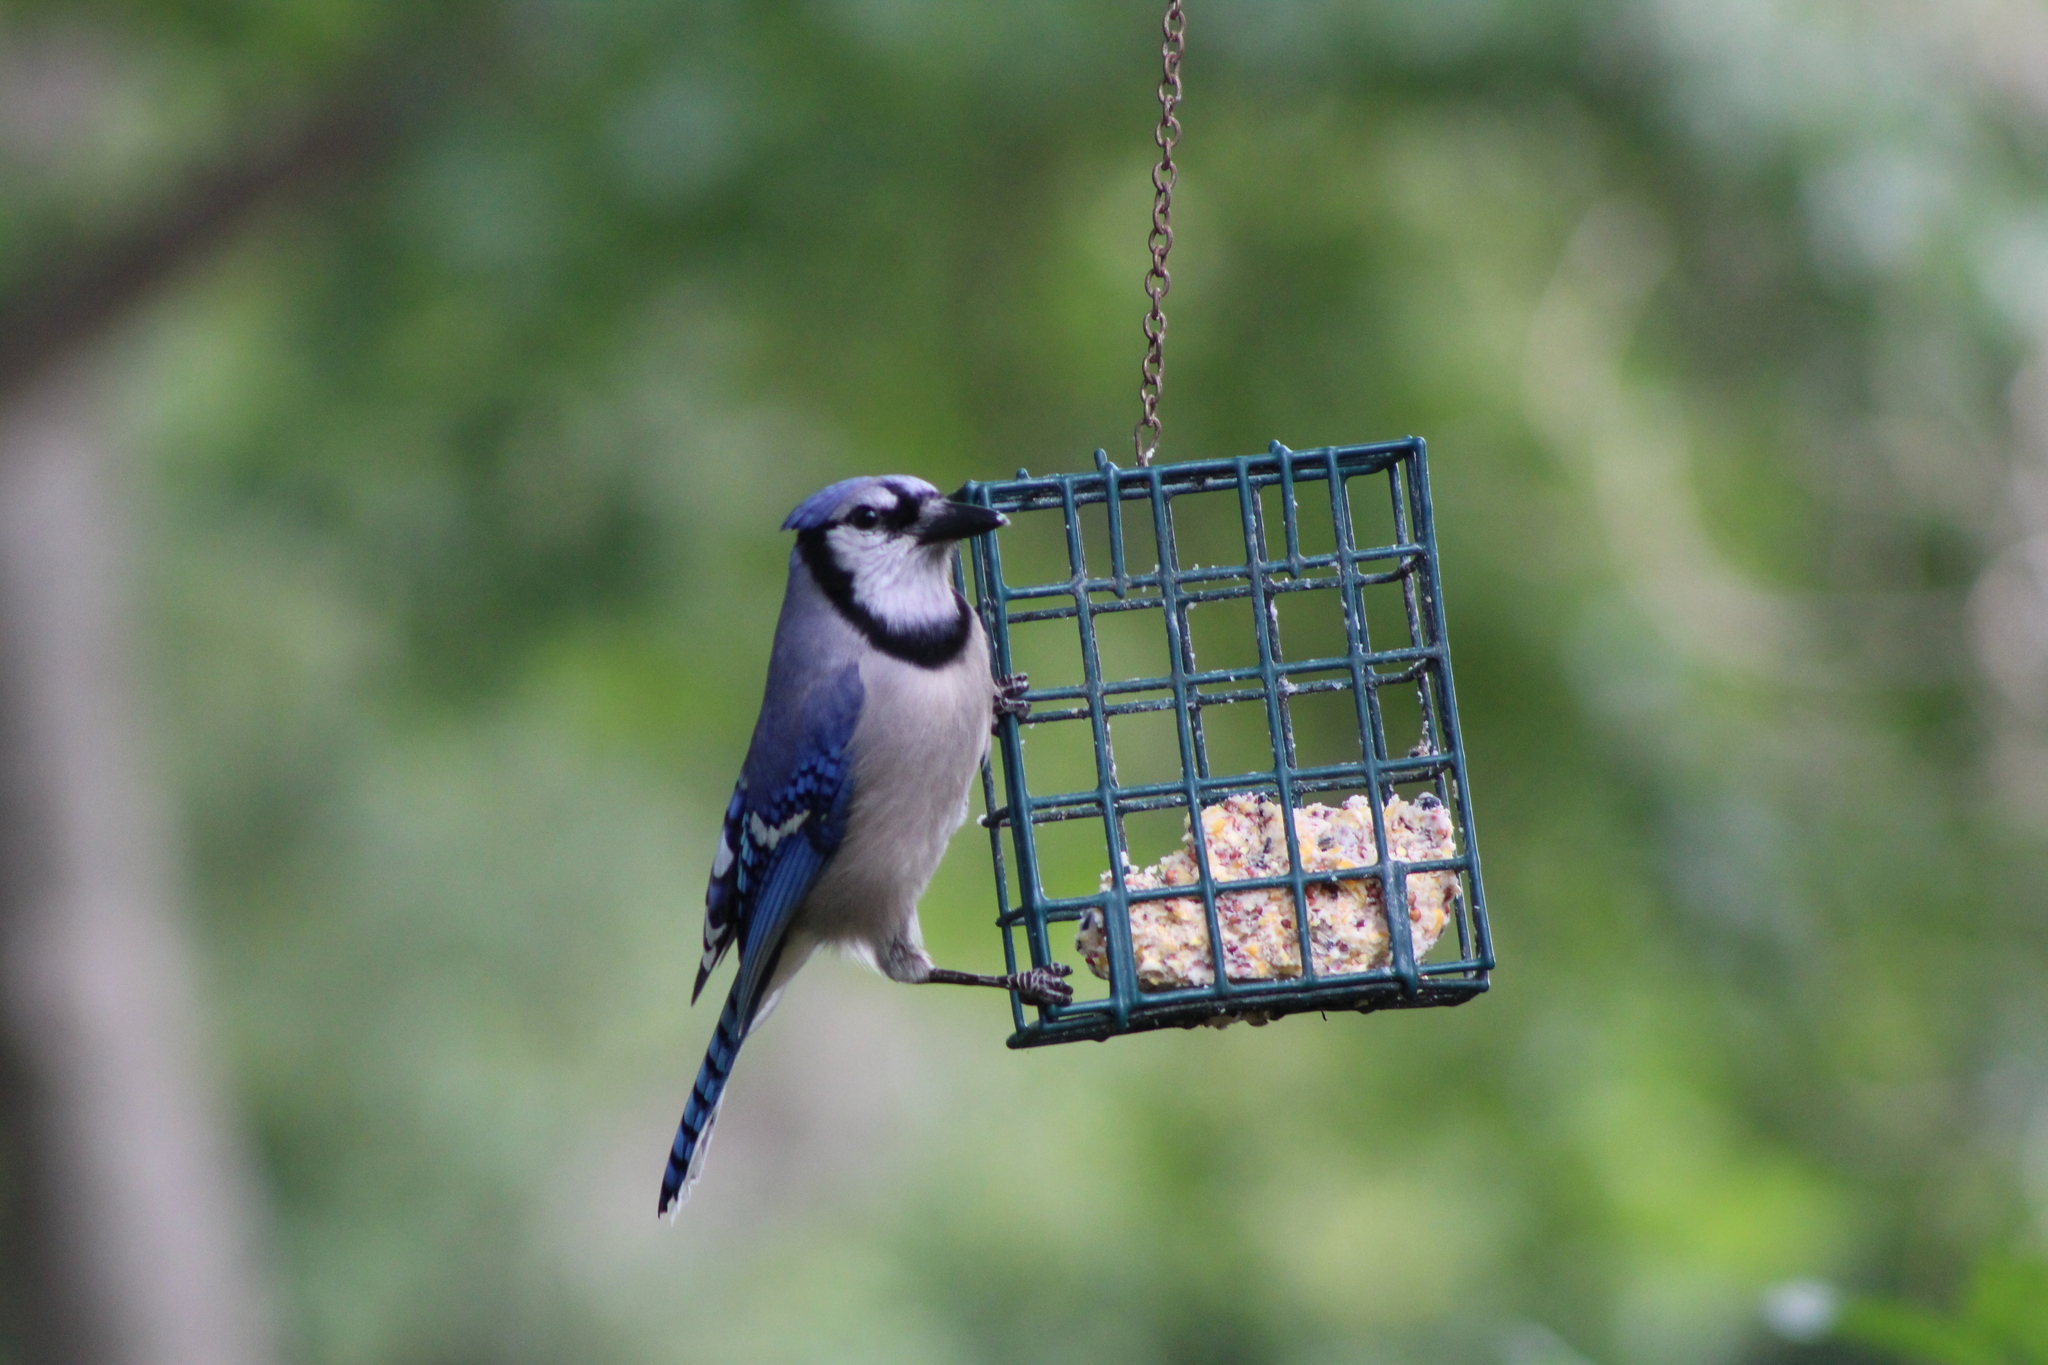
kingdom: Animalia
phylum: Chordata
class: Aves
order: Passeriformes
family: Corvidae
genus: Cyanocitta
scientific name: Cyanocitta cristata
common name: Blue jay
